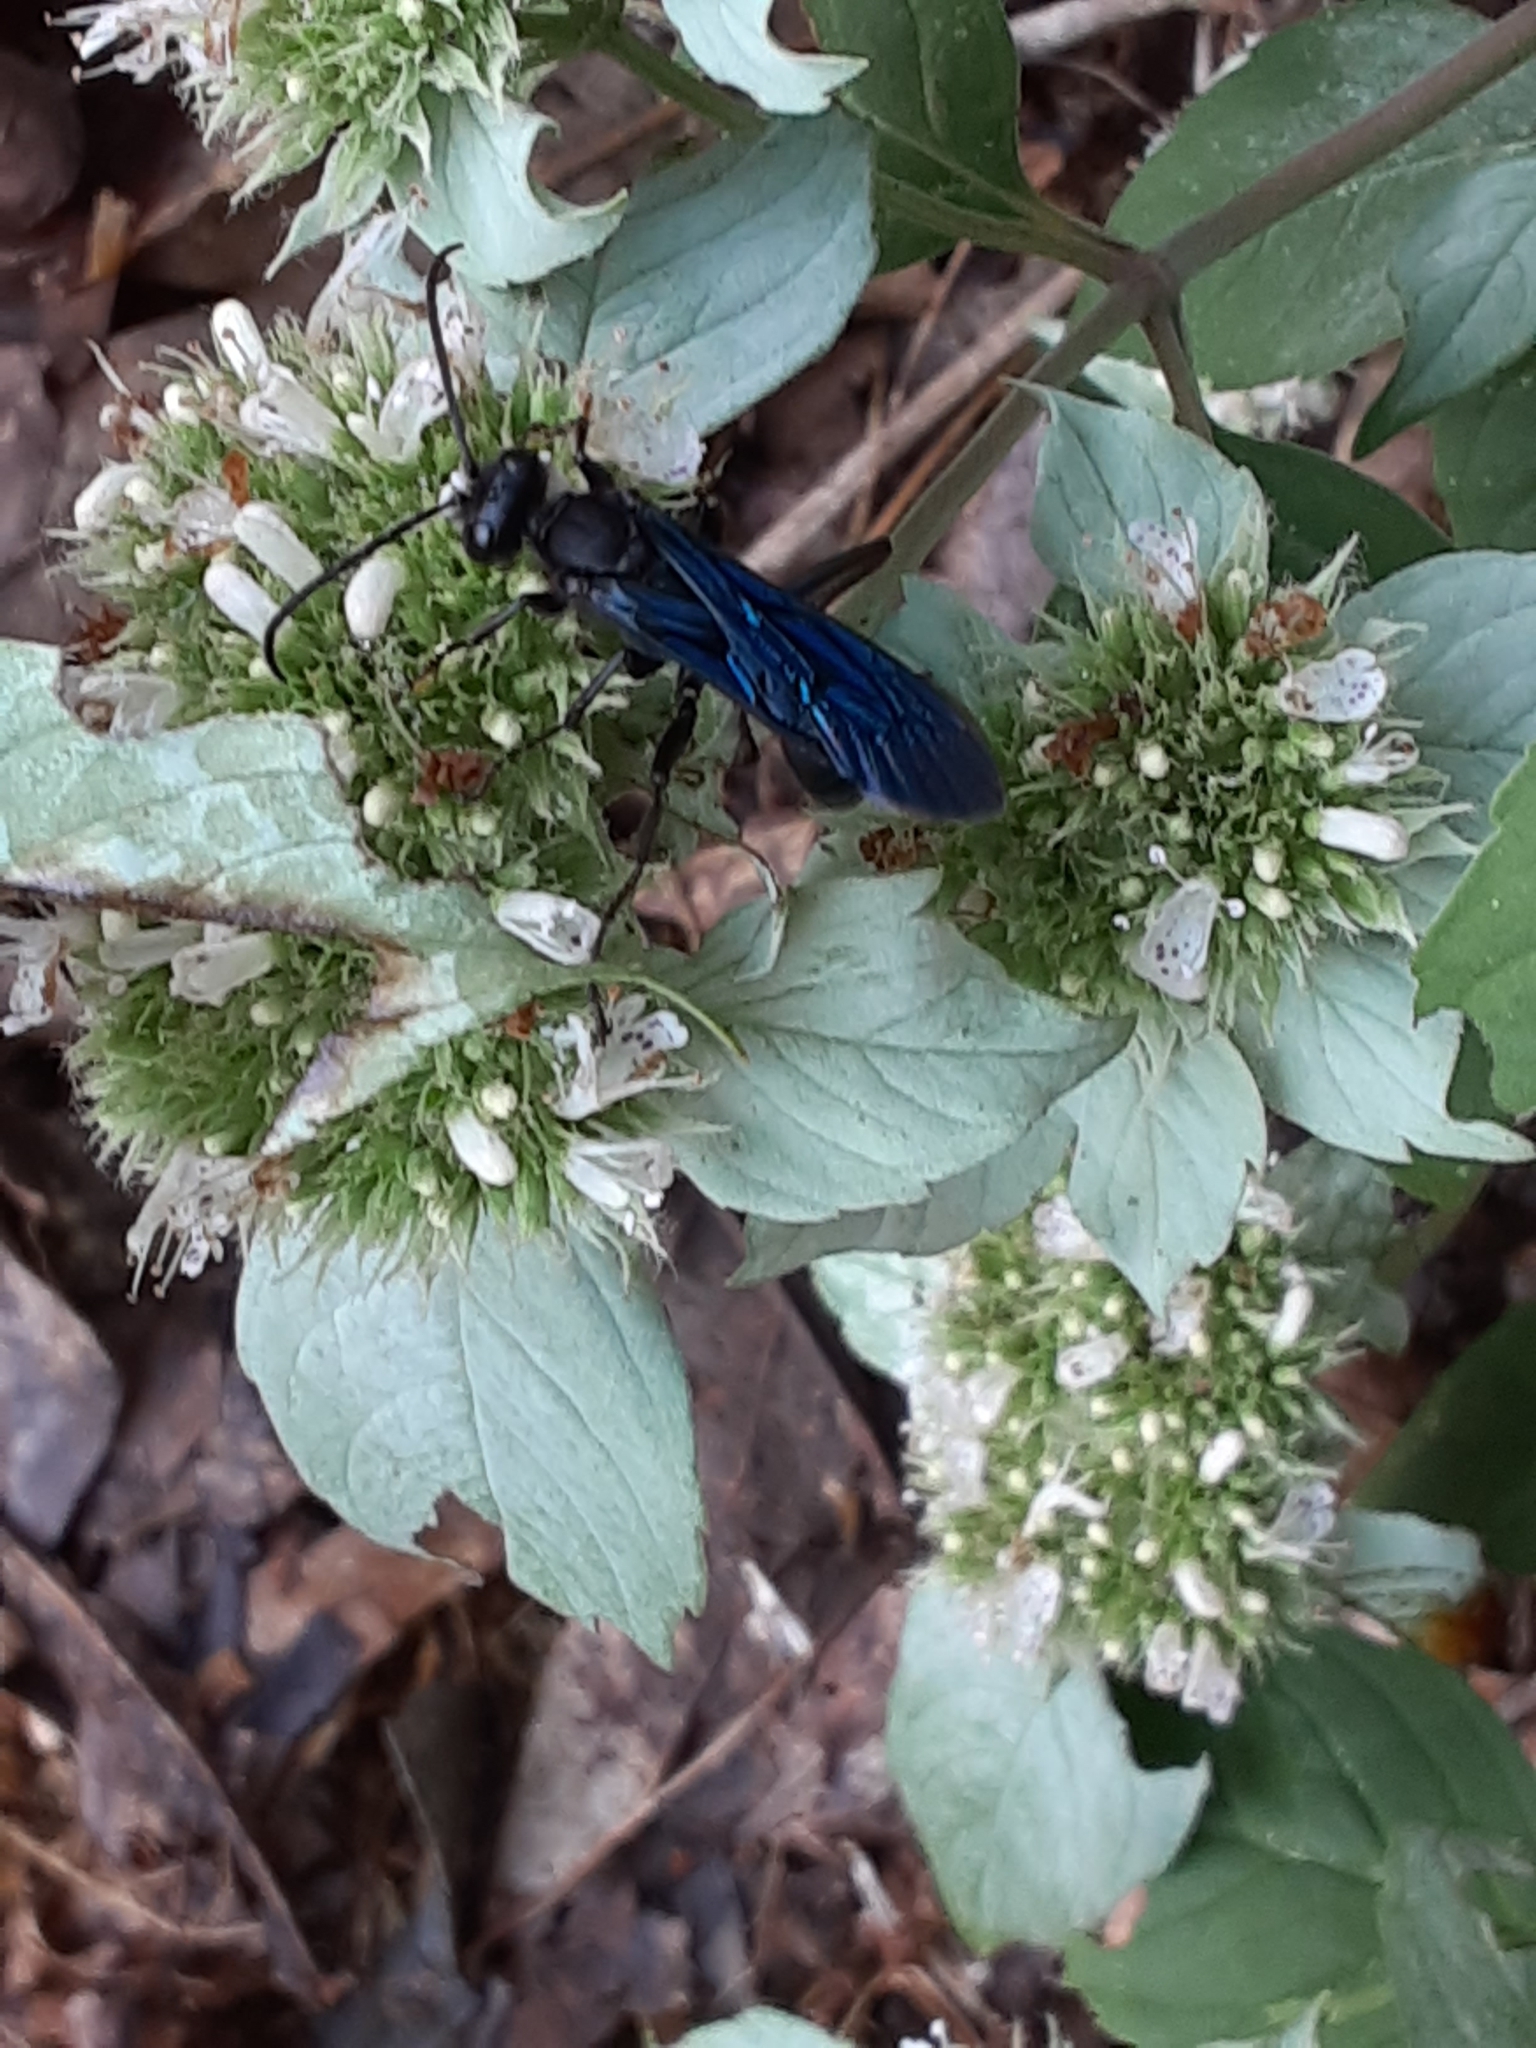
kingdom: Animalia
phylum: Arthropoda
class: Insecta
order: Hymenoptera
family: Sphecidae
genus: Sphex
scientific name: Sphex pensylvanicus
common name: Great black digger wasp
